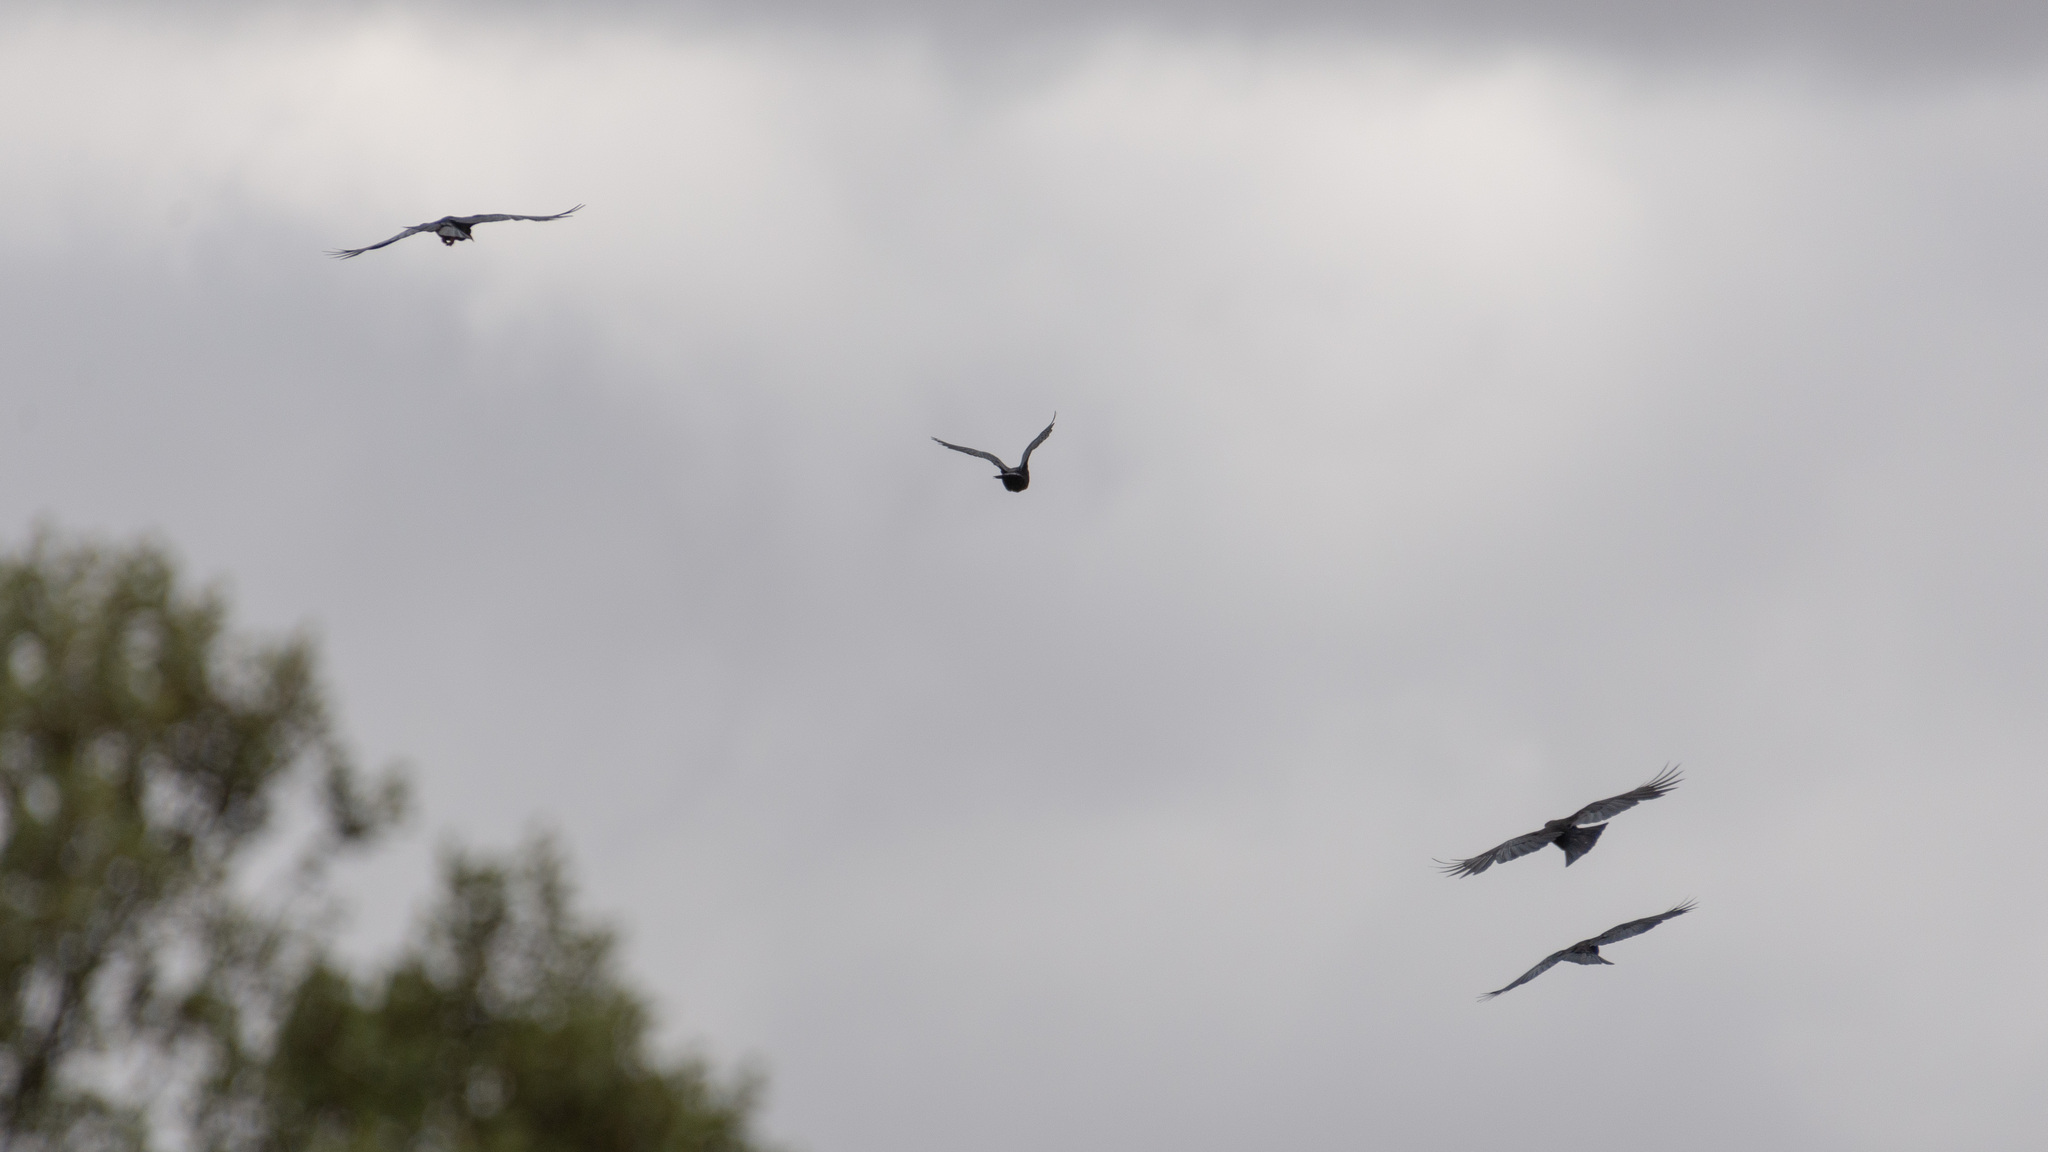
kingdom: Animalia
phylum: Chordata
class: Aves
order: Passeriformes
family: Corvidae
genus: Pyrrhocorax
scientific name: Pyrrhocorax pyrrhocorax
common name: Red-billed chough
